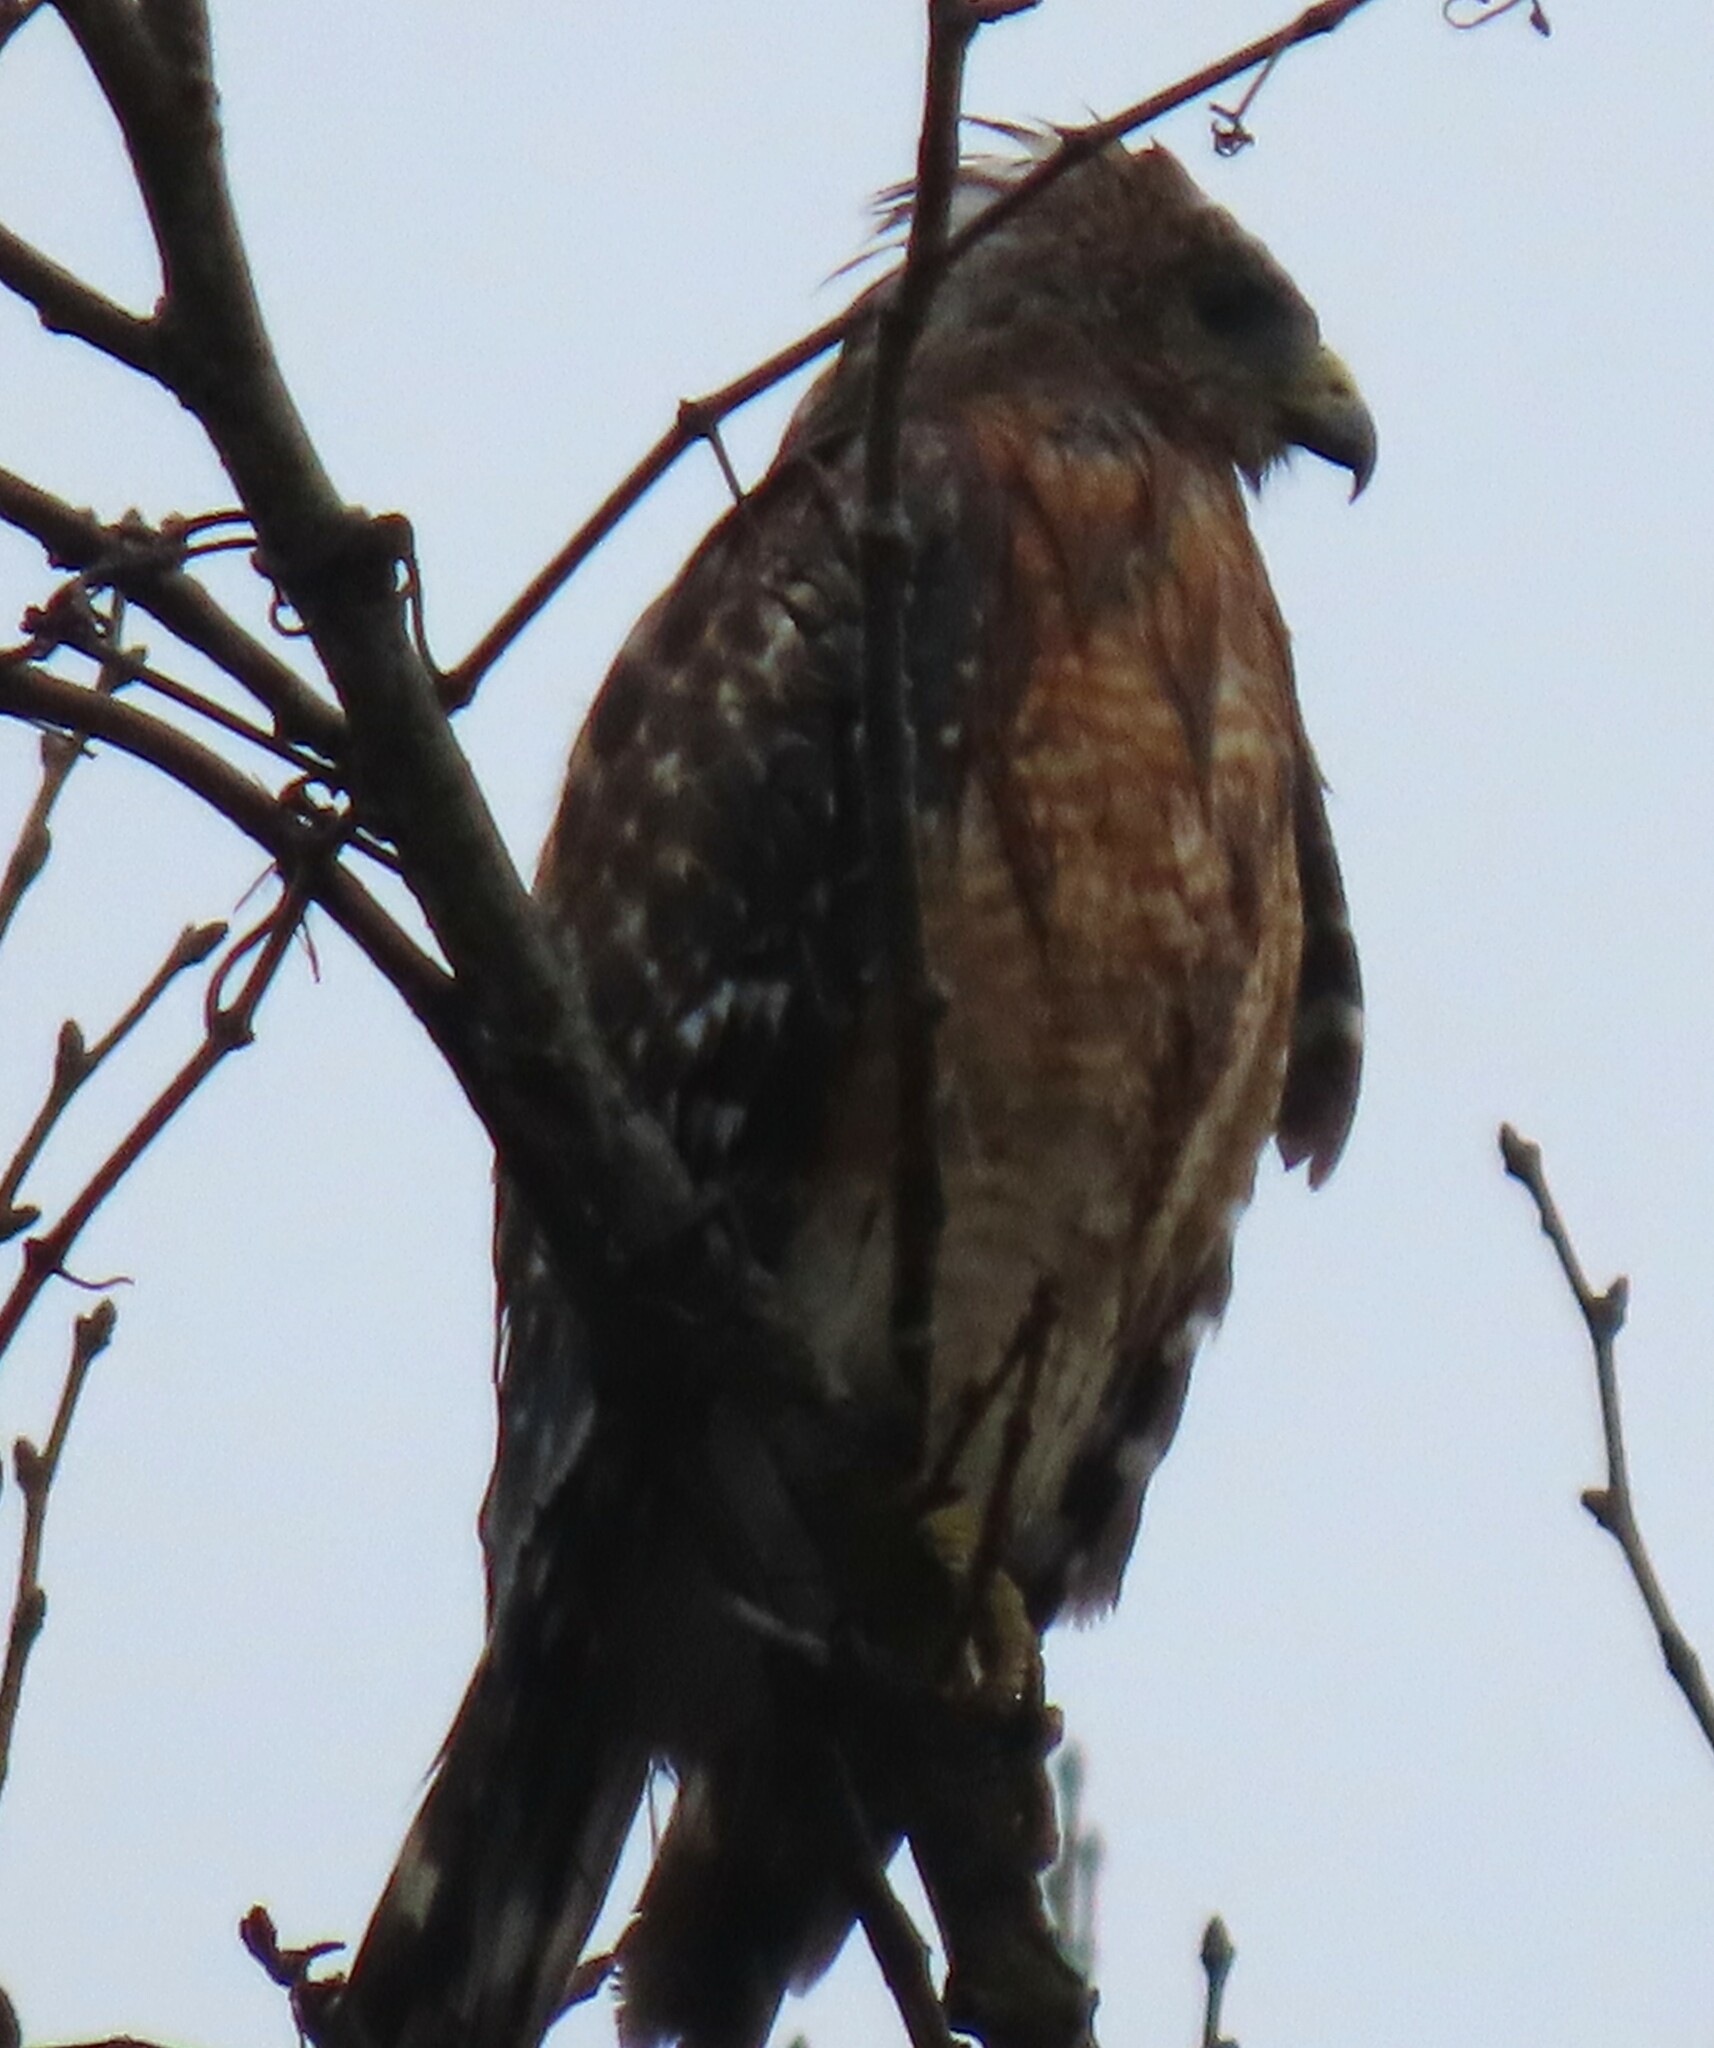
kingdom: Animalia
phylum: Chordata
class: Aves
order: Accipitriformes
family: Accipitridae
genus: Buteo
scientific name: Buteo lineatus
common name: Red-shouldered hawk
